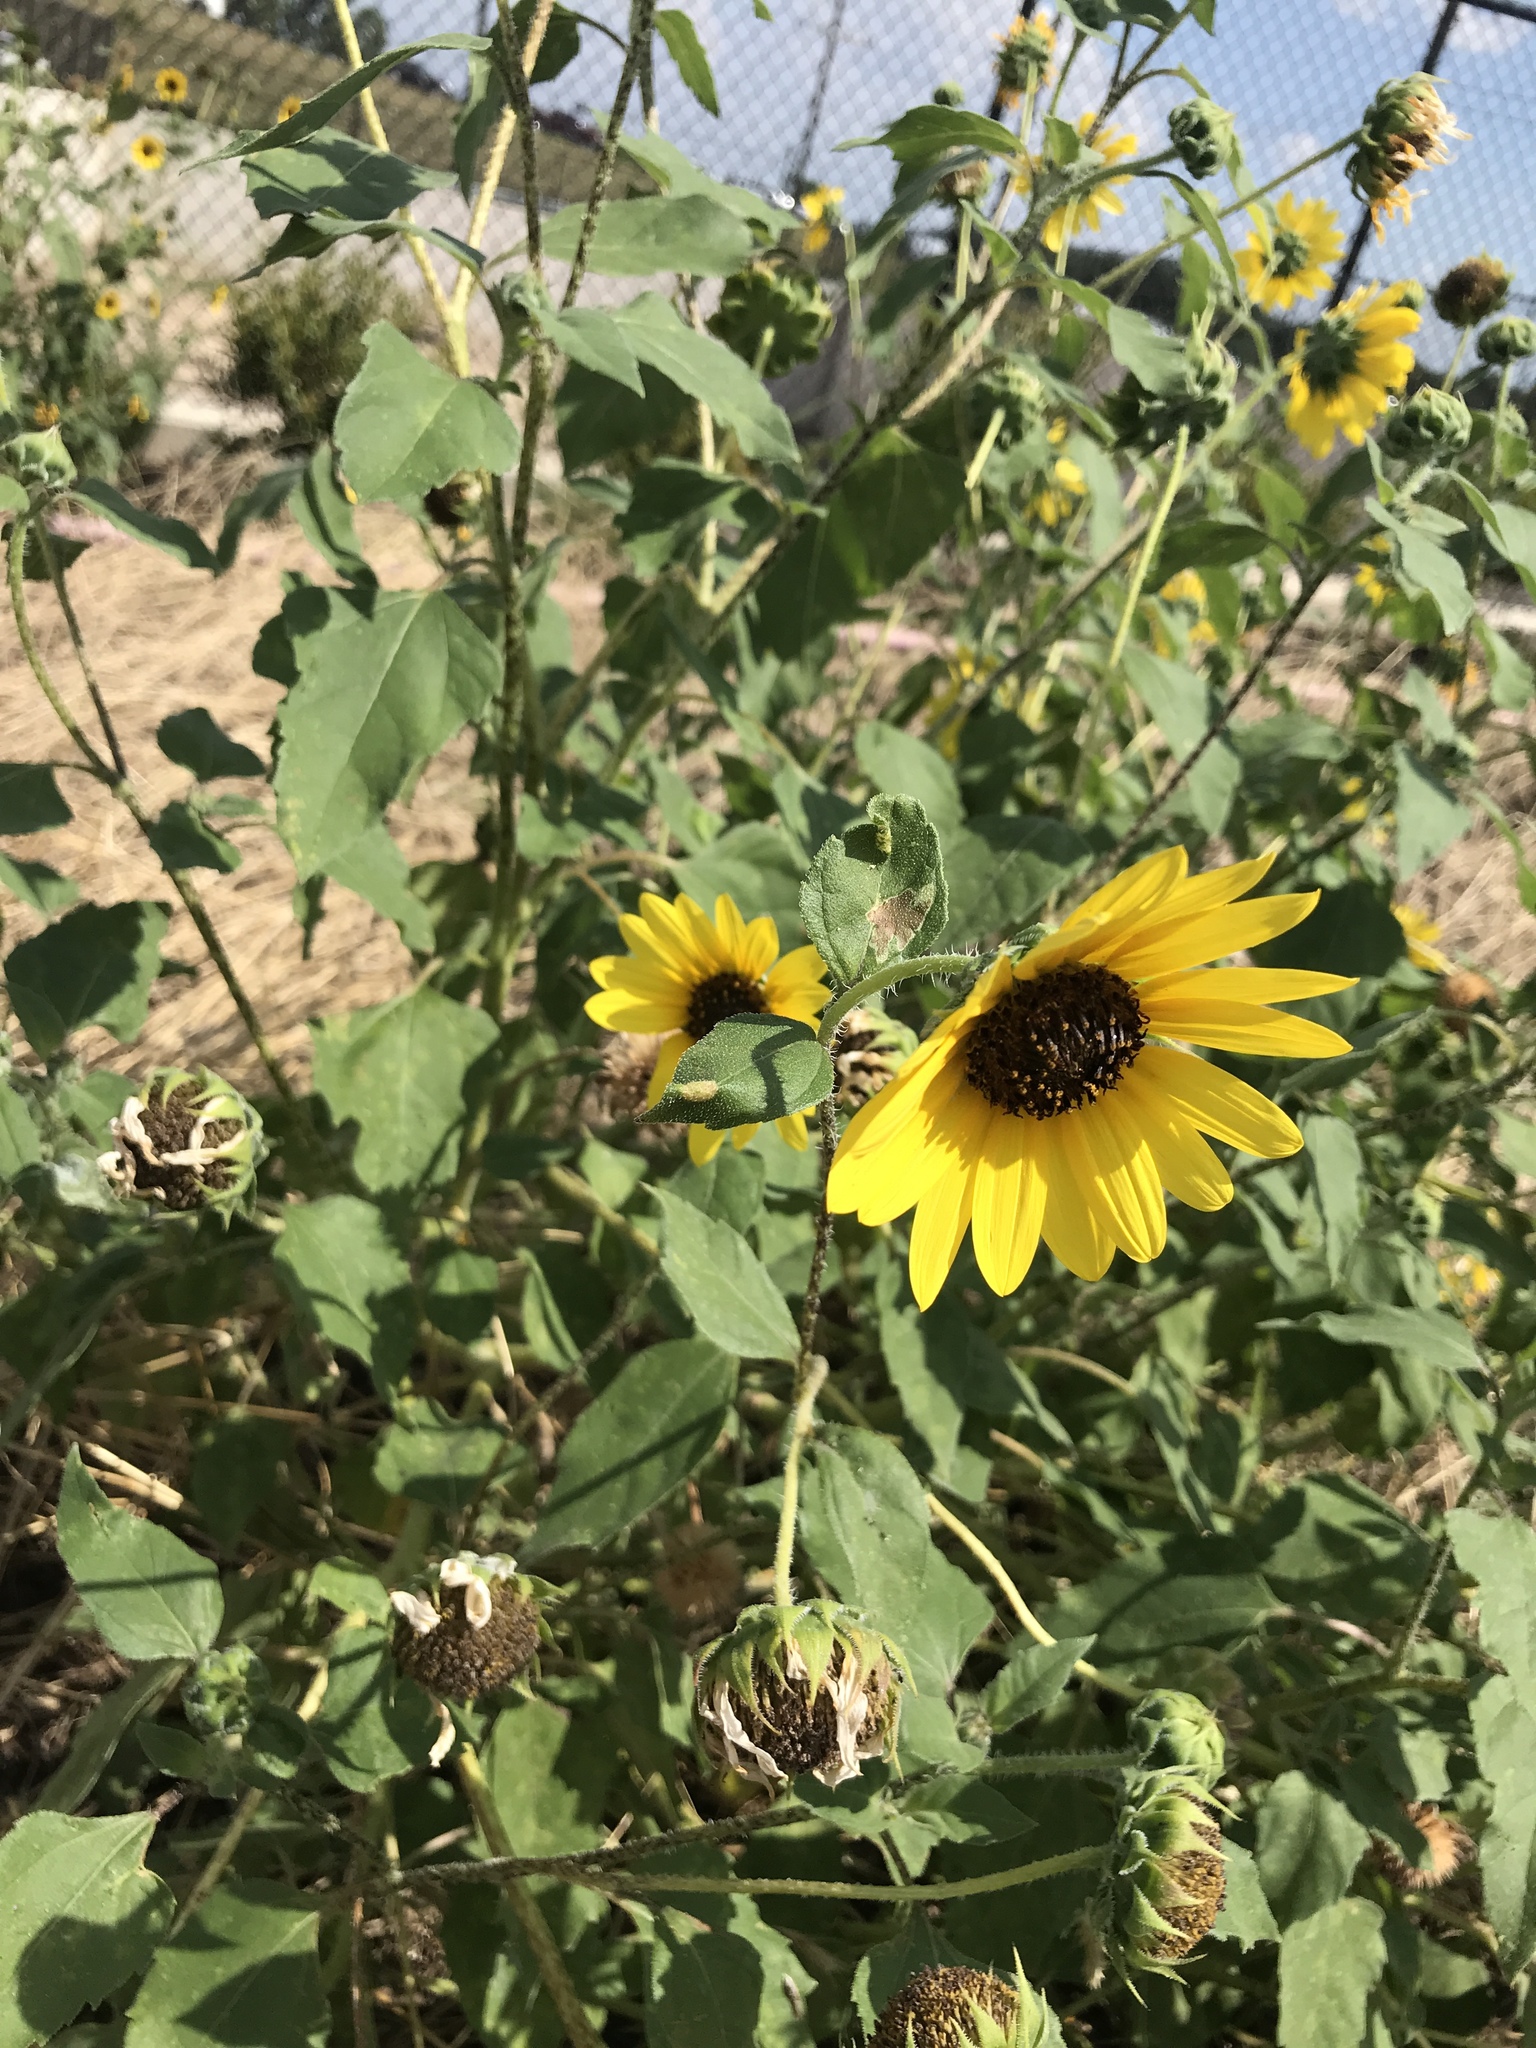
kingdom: Plantae
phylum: Tracheophyta
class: Magnoliopsida
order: Asterales
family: Asteraceae
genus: Helianthus
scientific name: Helianthus annuus
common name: Sunflower
